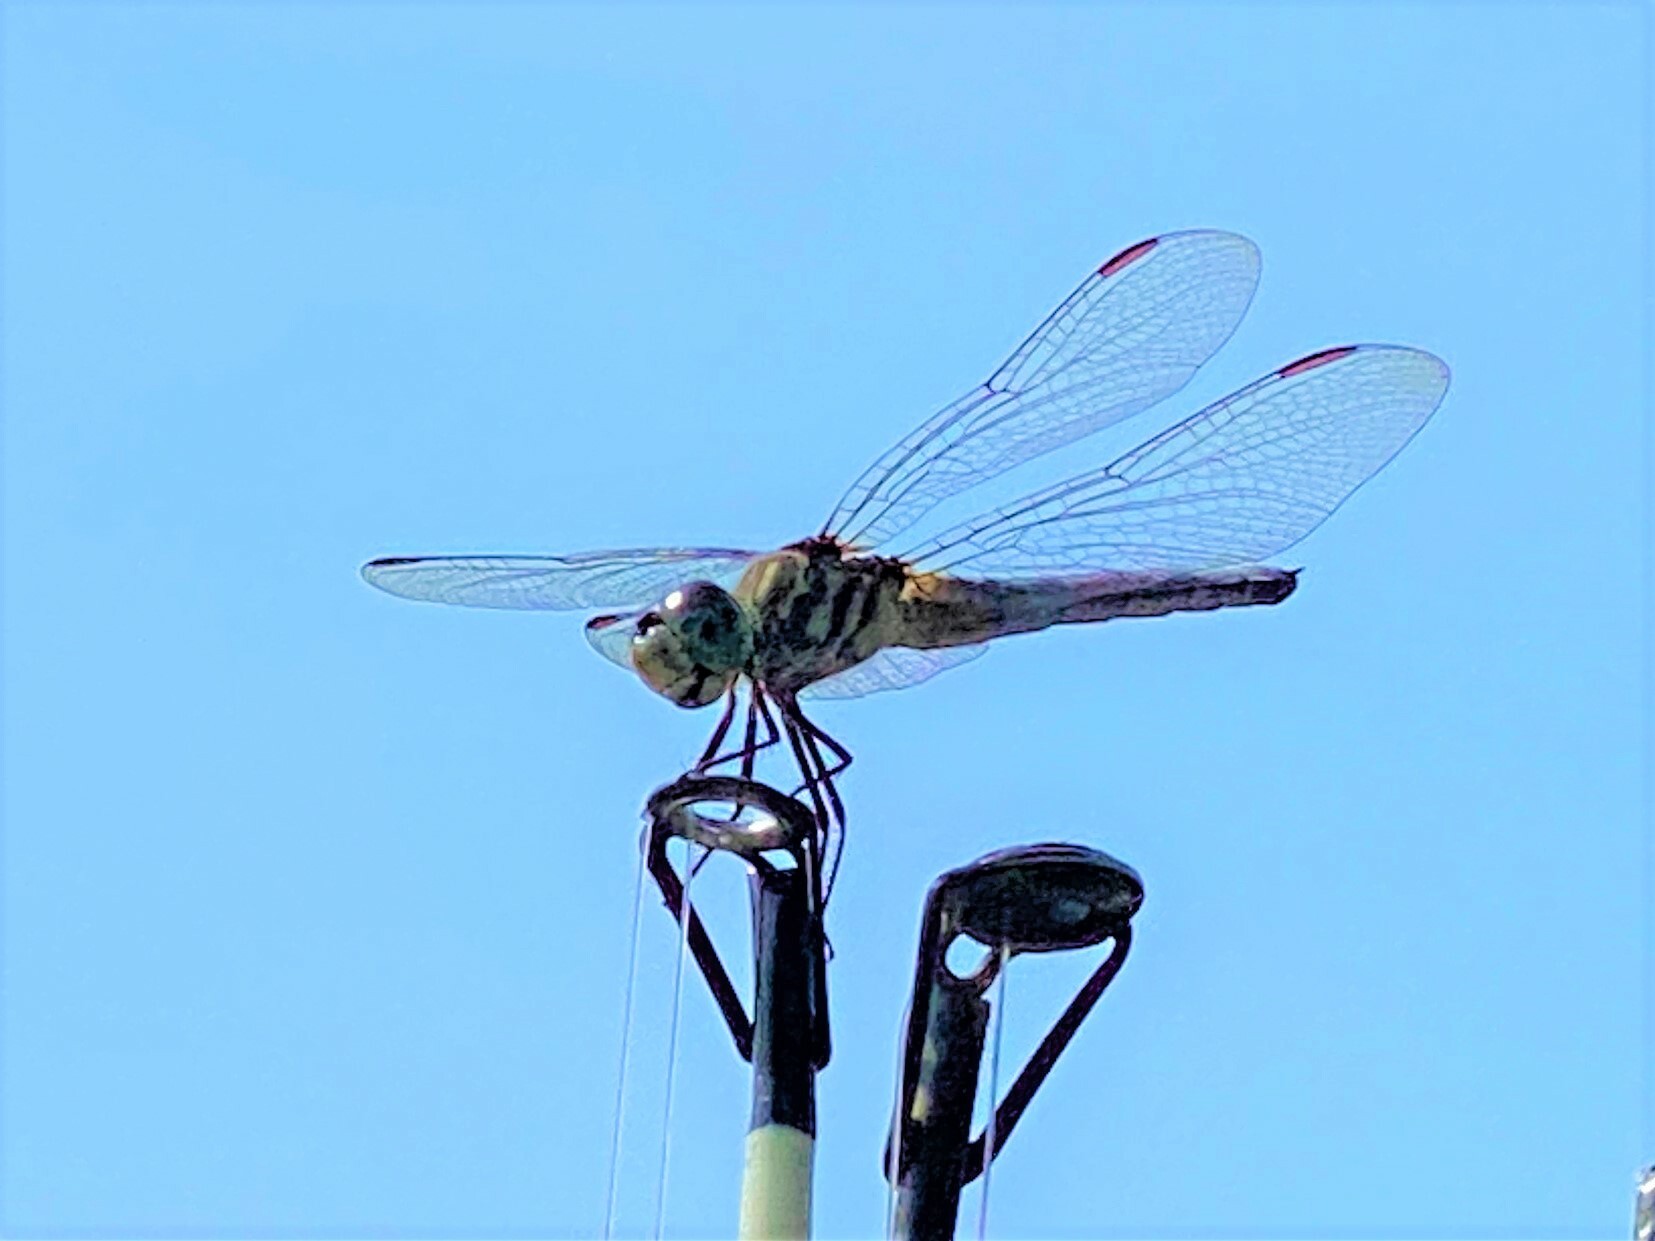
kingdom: Animalia
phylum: Arthropoda
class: Insecta
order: Odonata
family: Libellulidae
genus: Pachydiplax
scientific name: Pachydiplax longipennis
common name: Blue dasher
